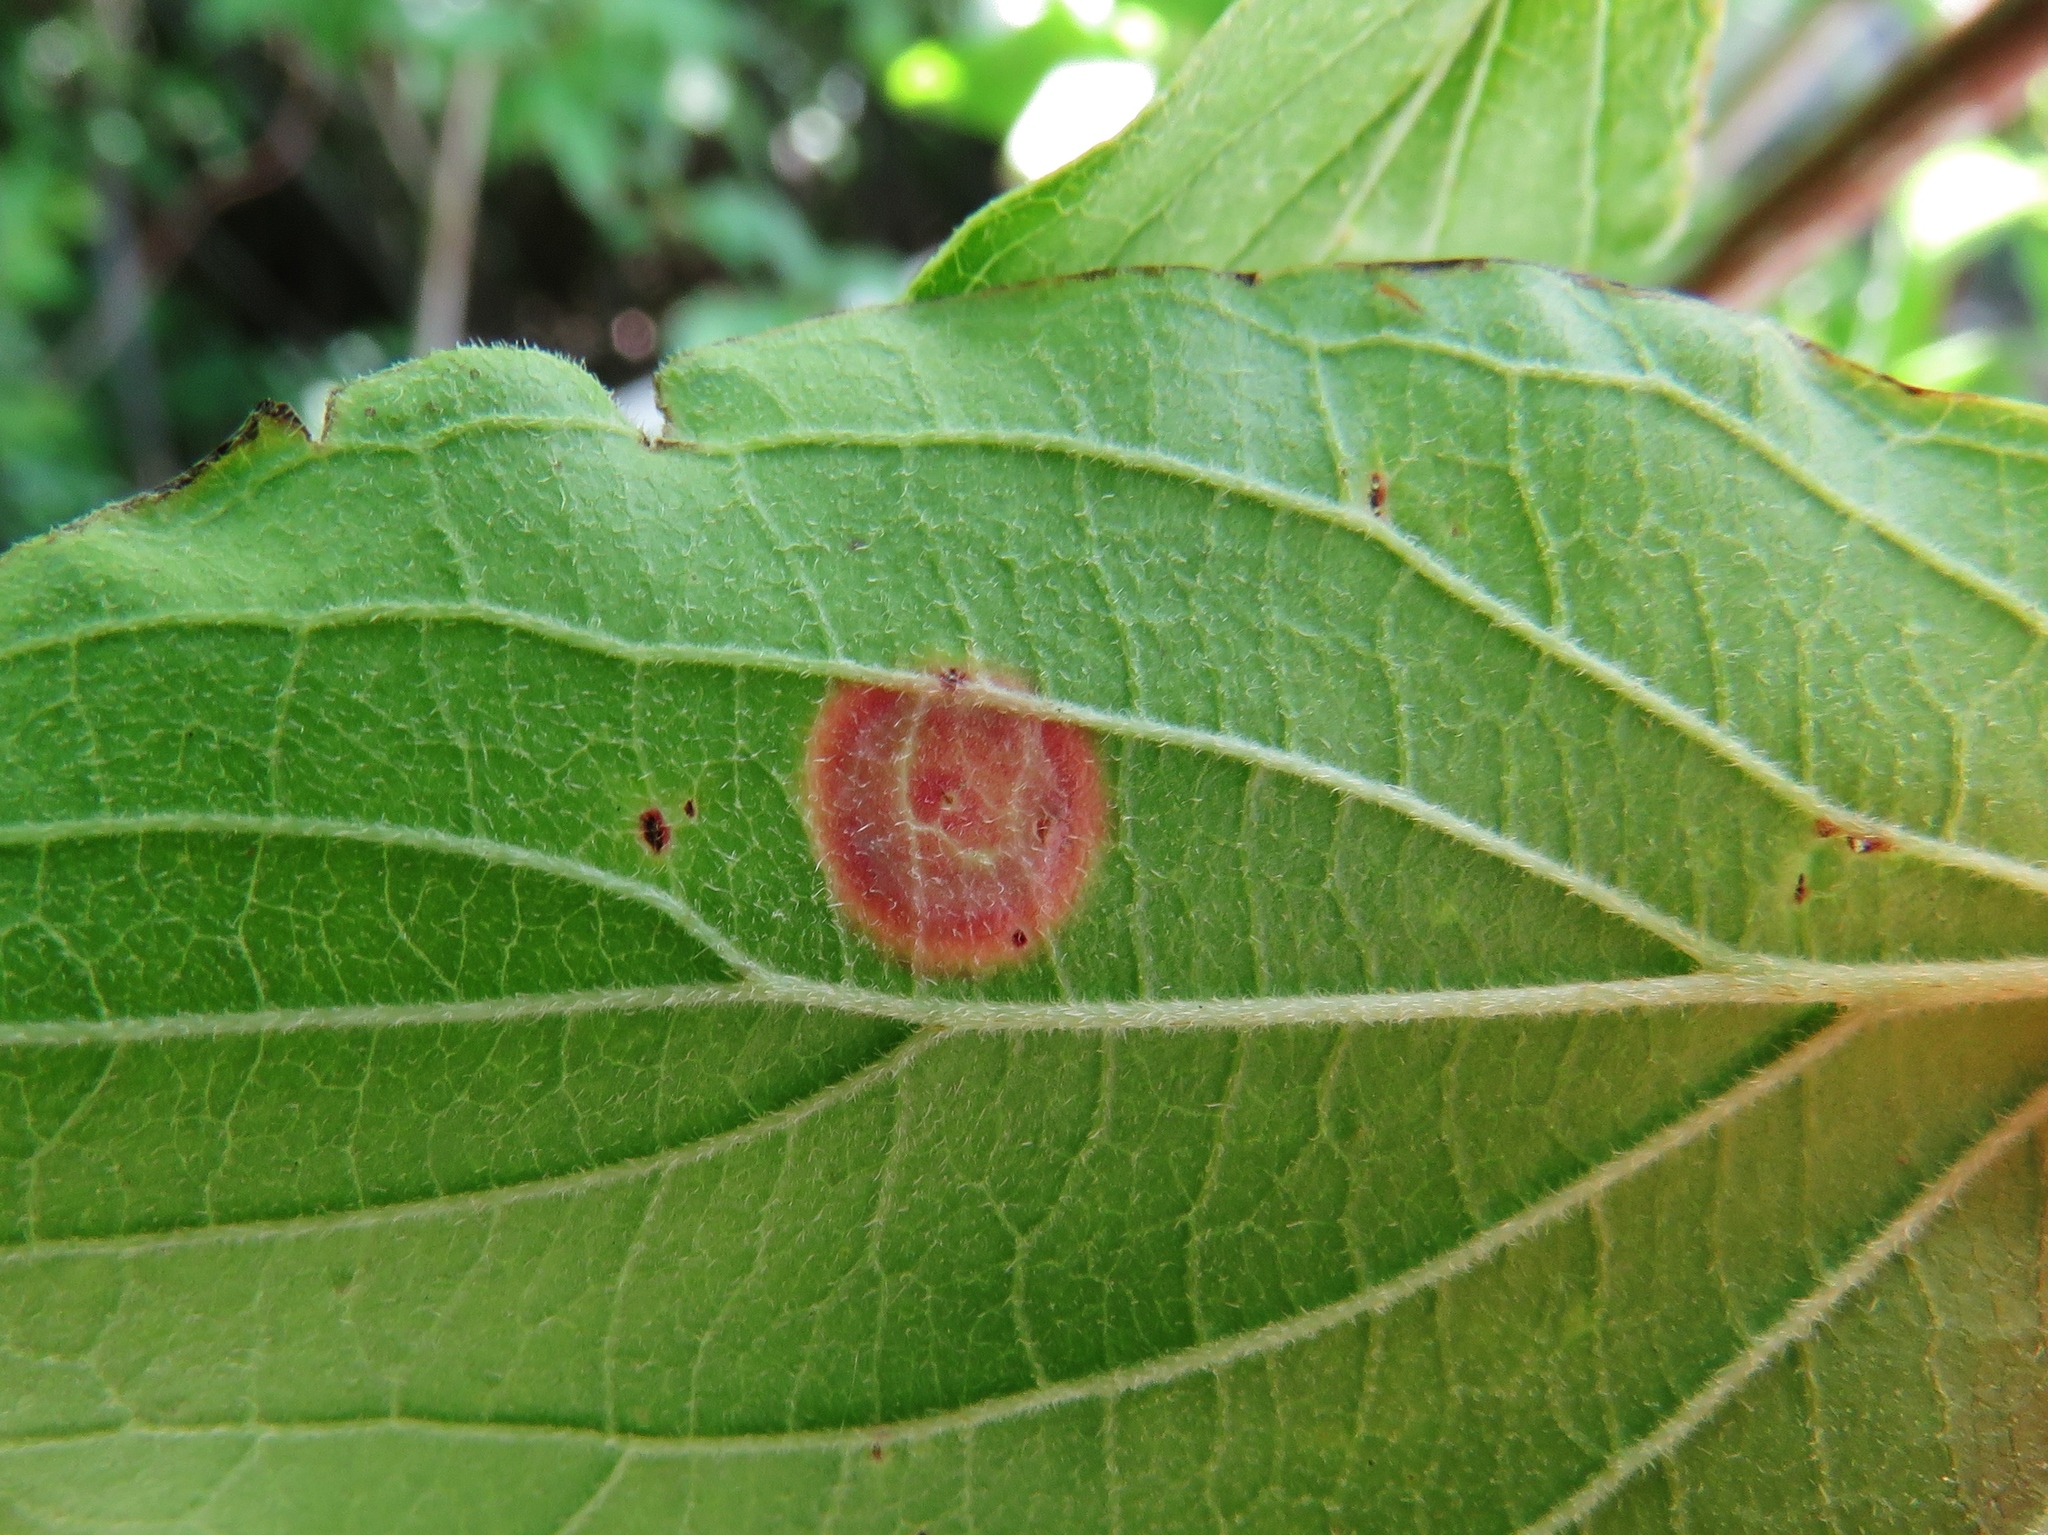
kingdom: Animalia
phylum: Arthropoda
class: Insecta
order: Diptera
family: Cecidomyiidae
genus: Parallelodiplosis
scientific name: Parallelodiplosis subtruncata
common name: Dogwood eyespot gall midge
